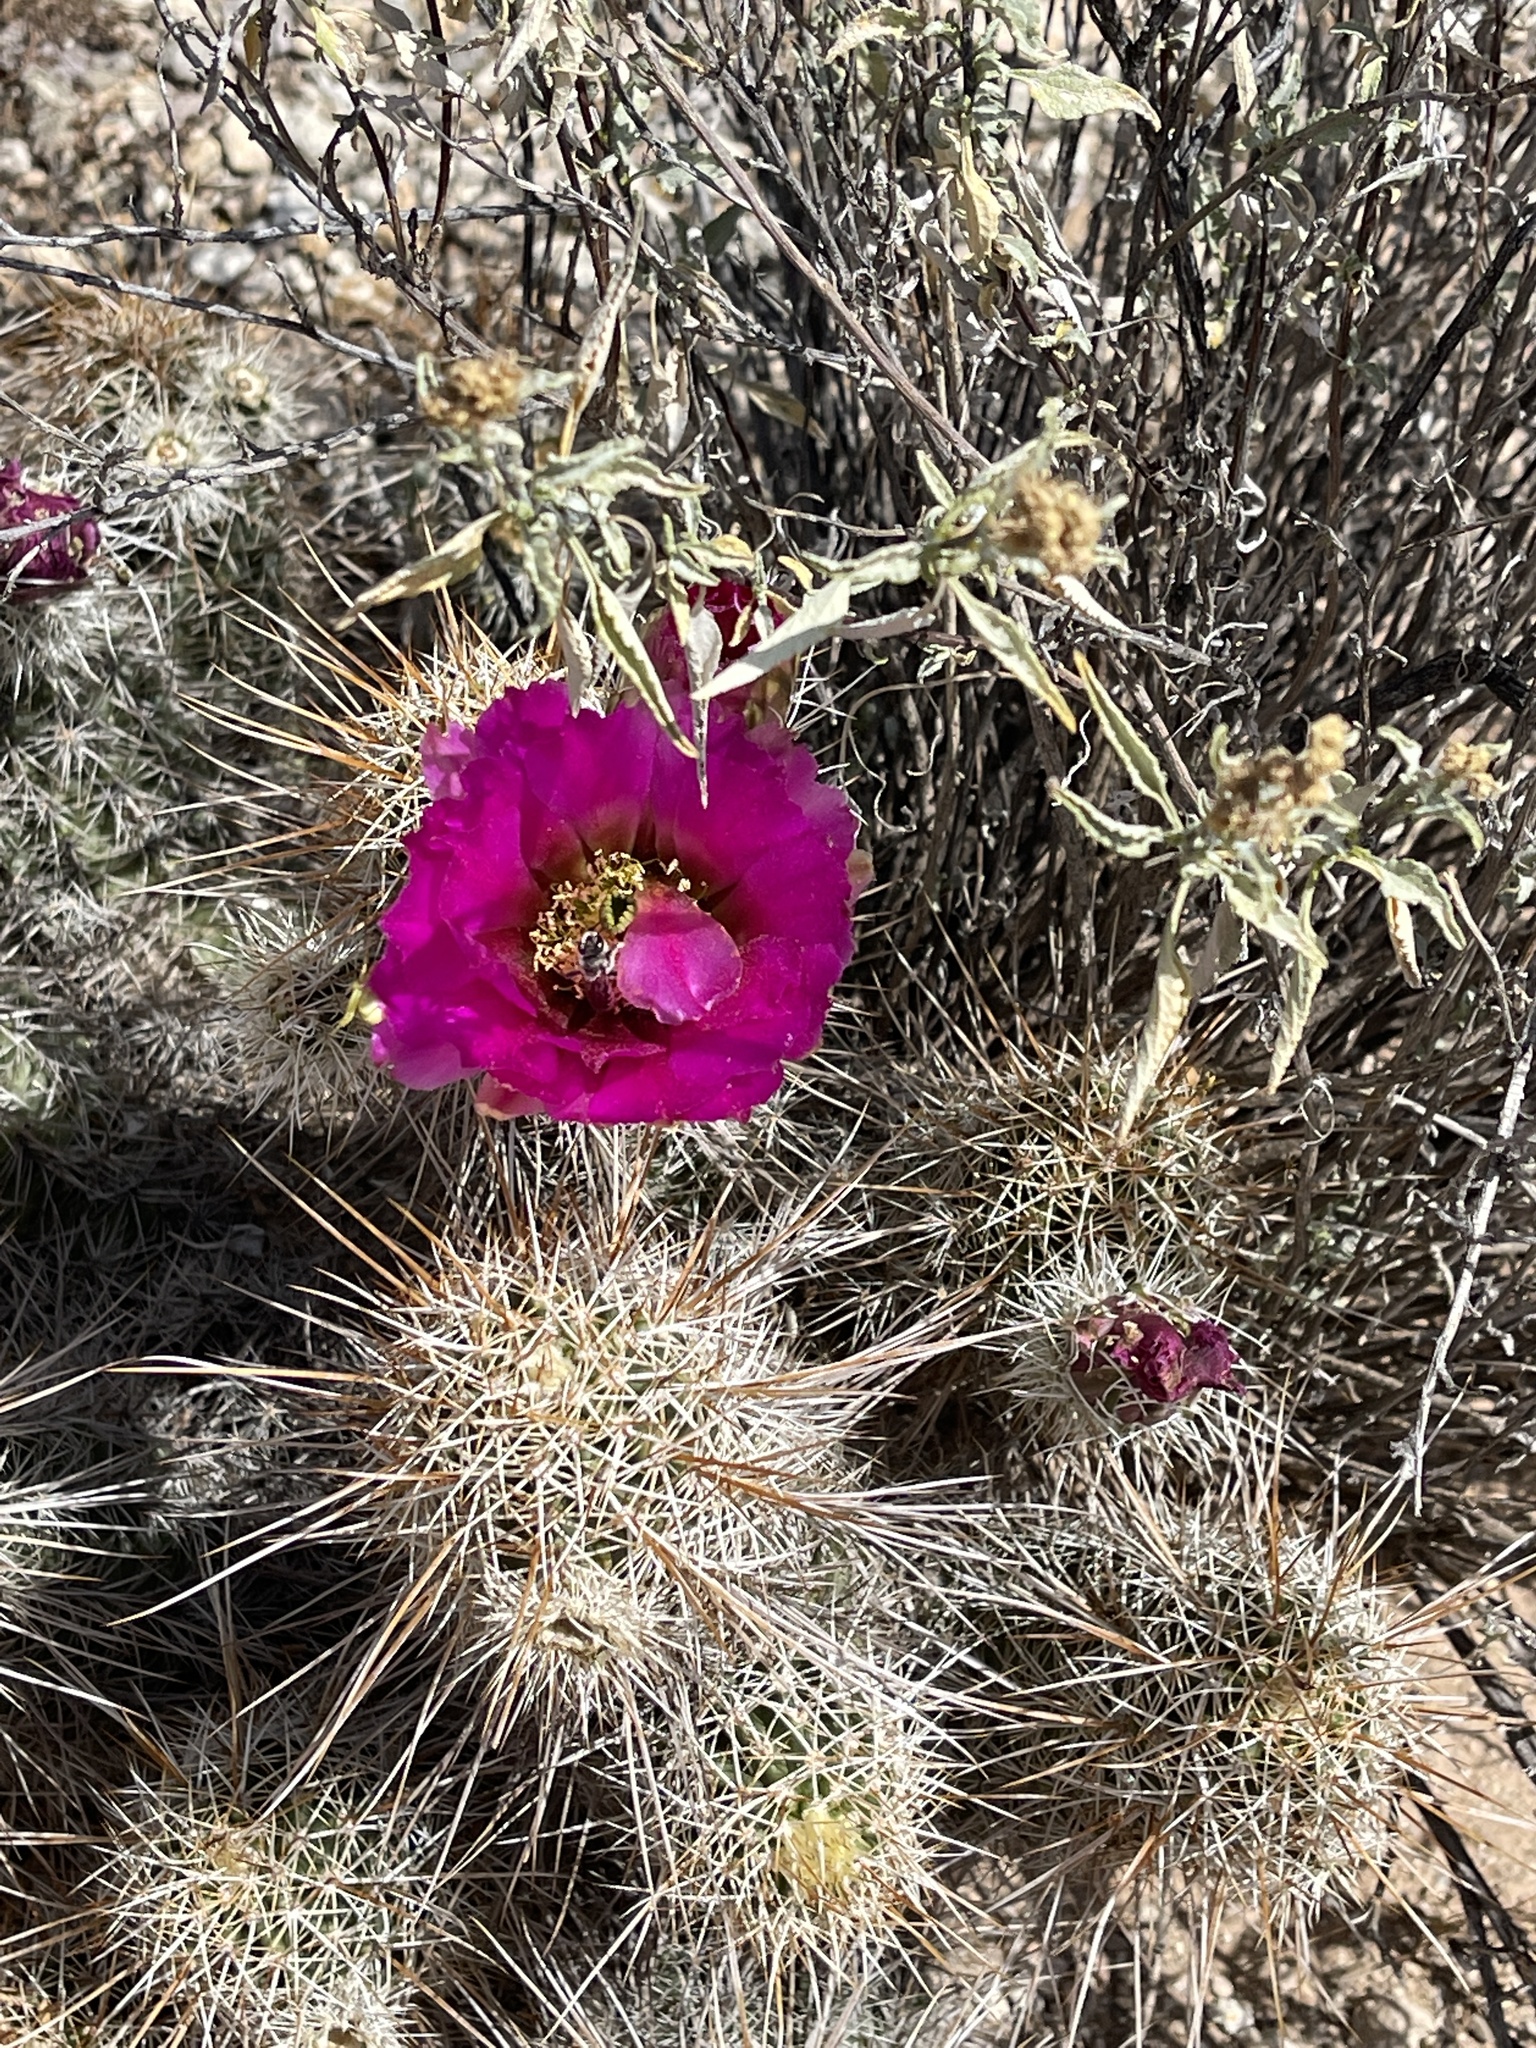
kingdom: Plantae
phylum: Tracheophyta
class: Magnoliopsida
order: Caryophyllales
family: Cactaceae
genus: Echinocereus
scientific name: Echinocereus fasciculatus
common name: Bundle hedgehog
